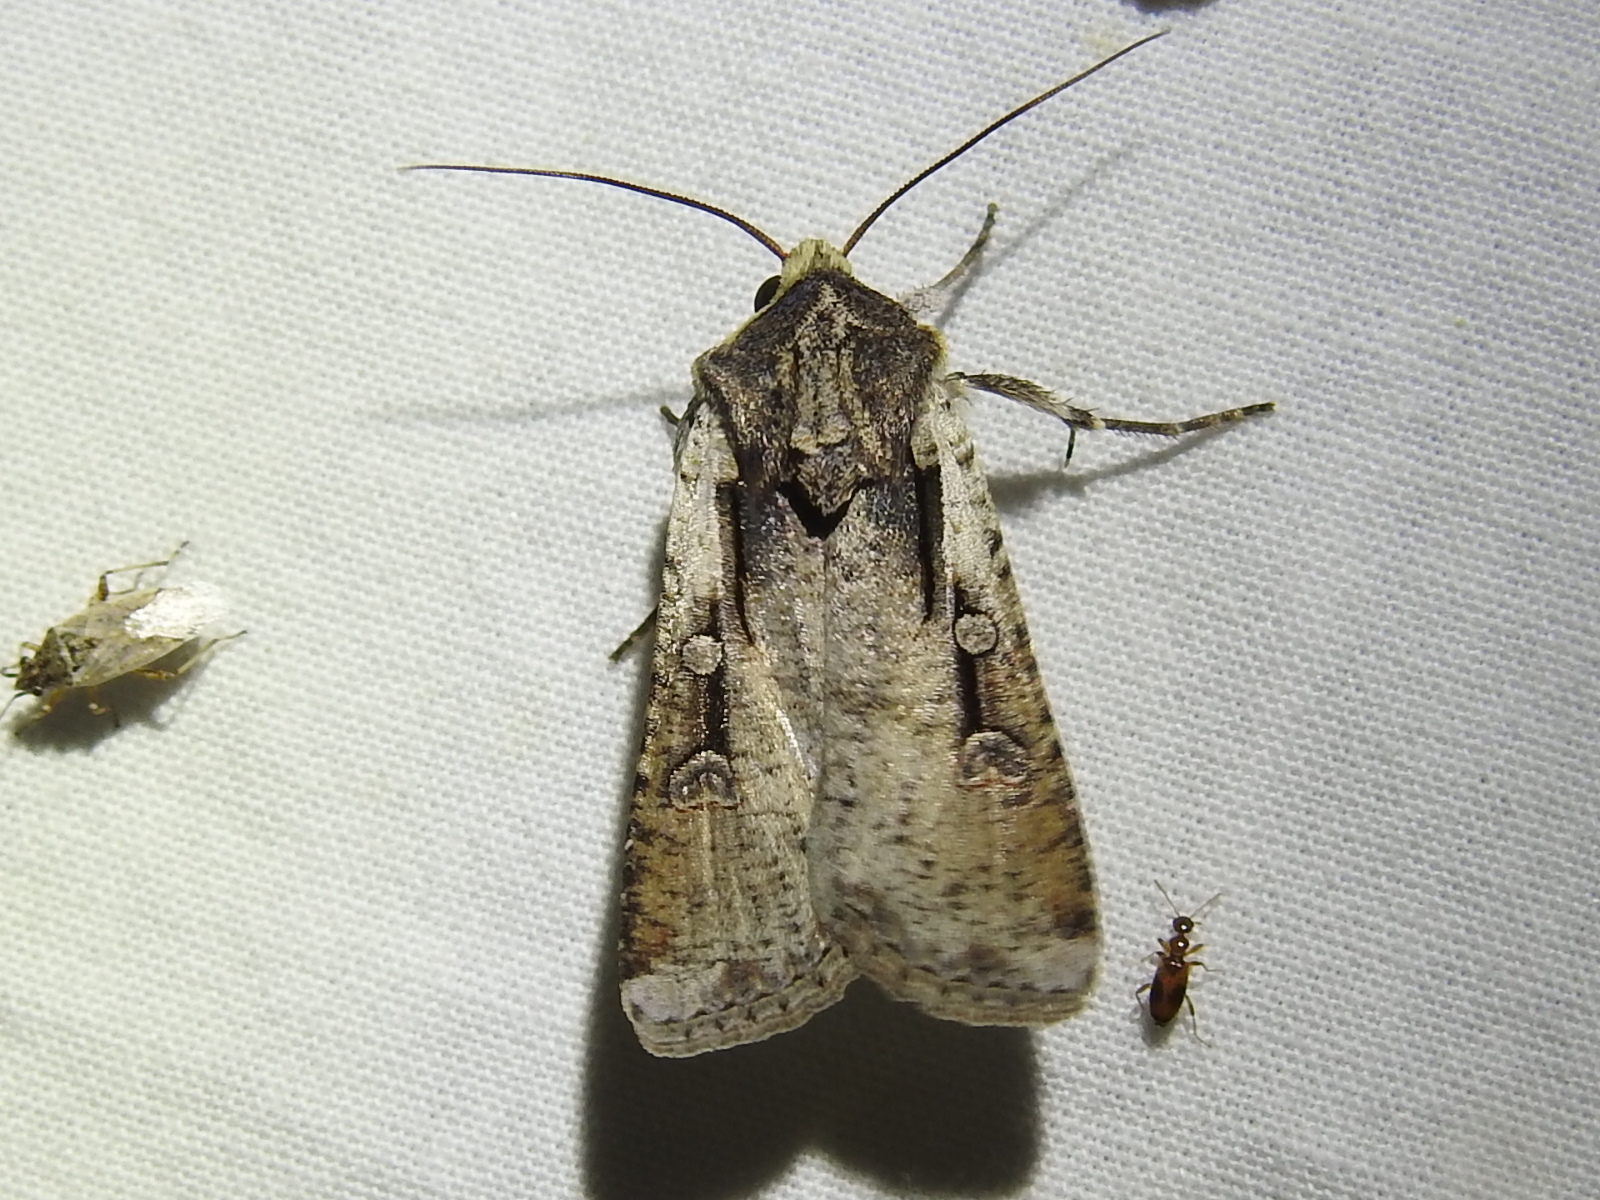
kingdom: Animalia
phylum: Arthropoda
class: Insecta
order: Lepidoptera
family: Noctuidae
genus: Hemieuxoa
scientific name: Hemieuxoa rudens
